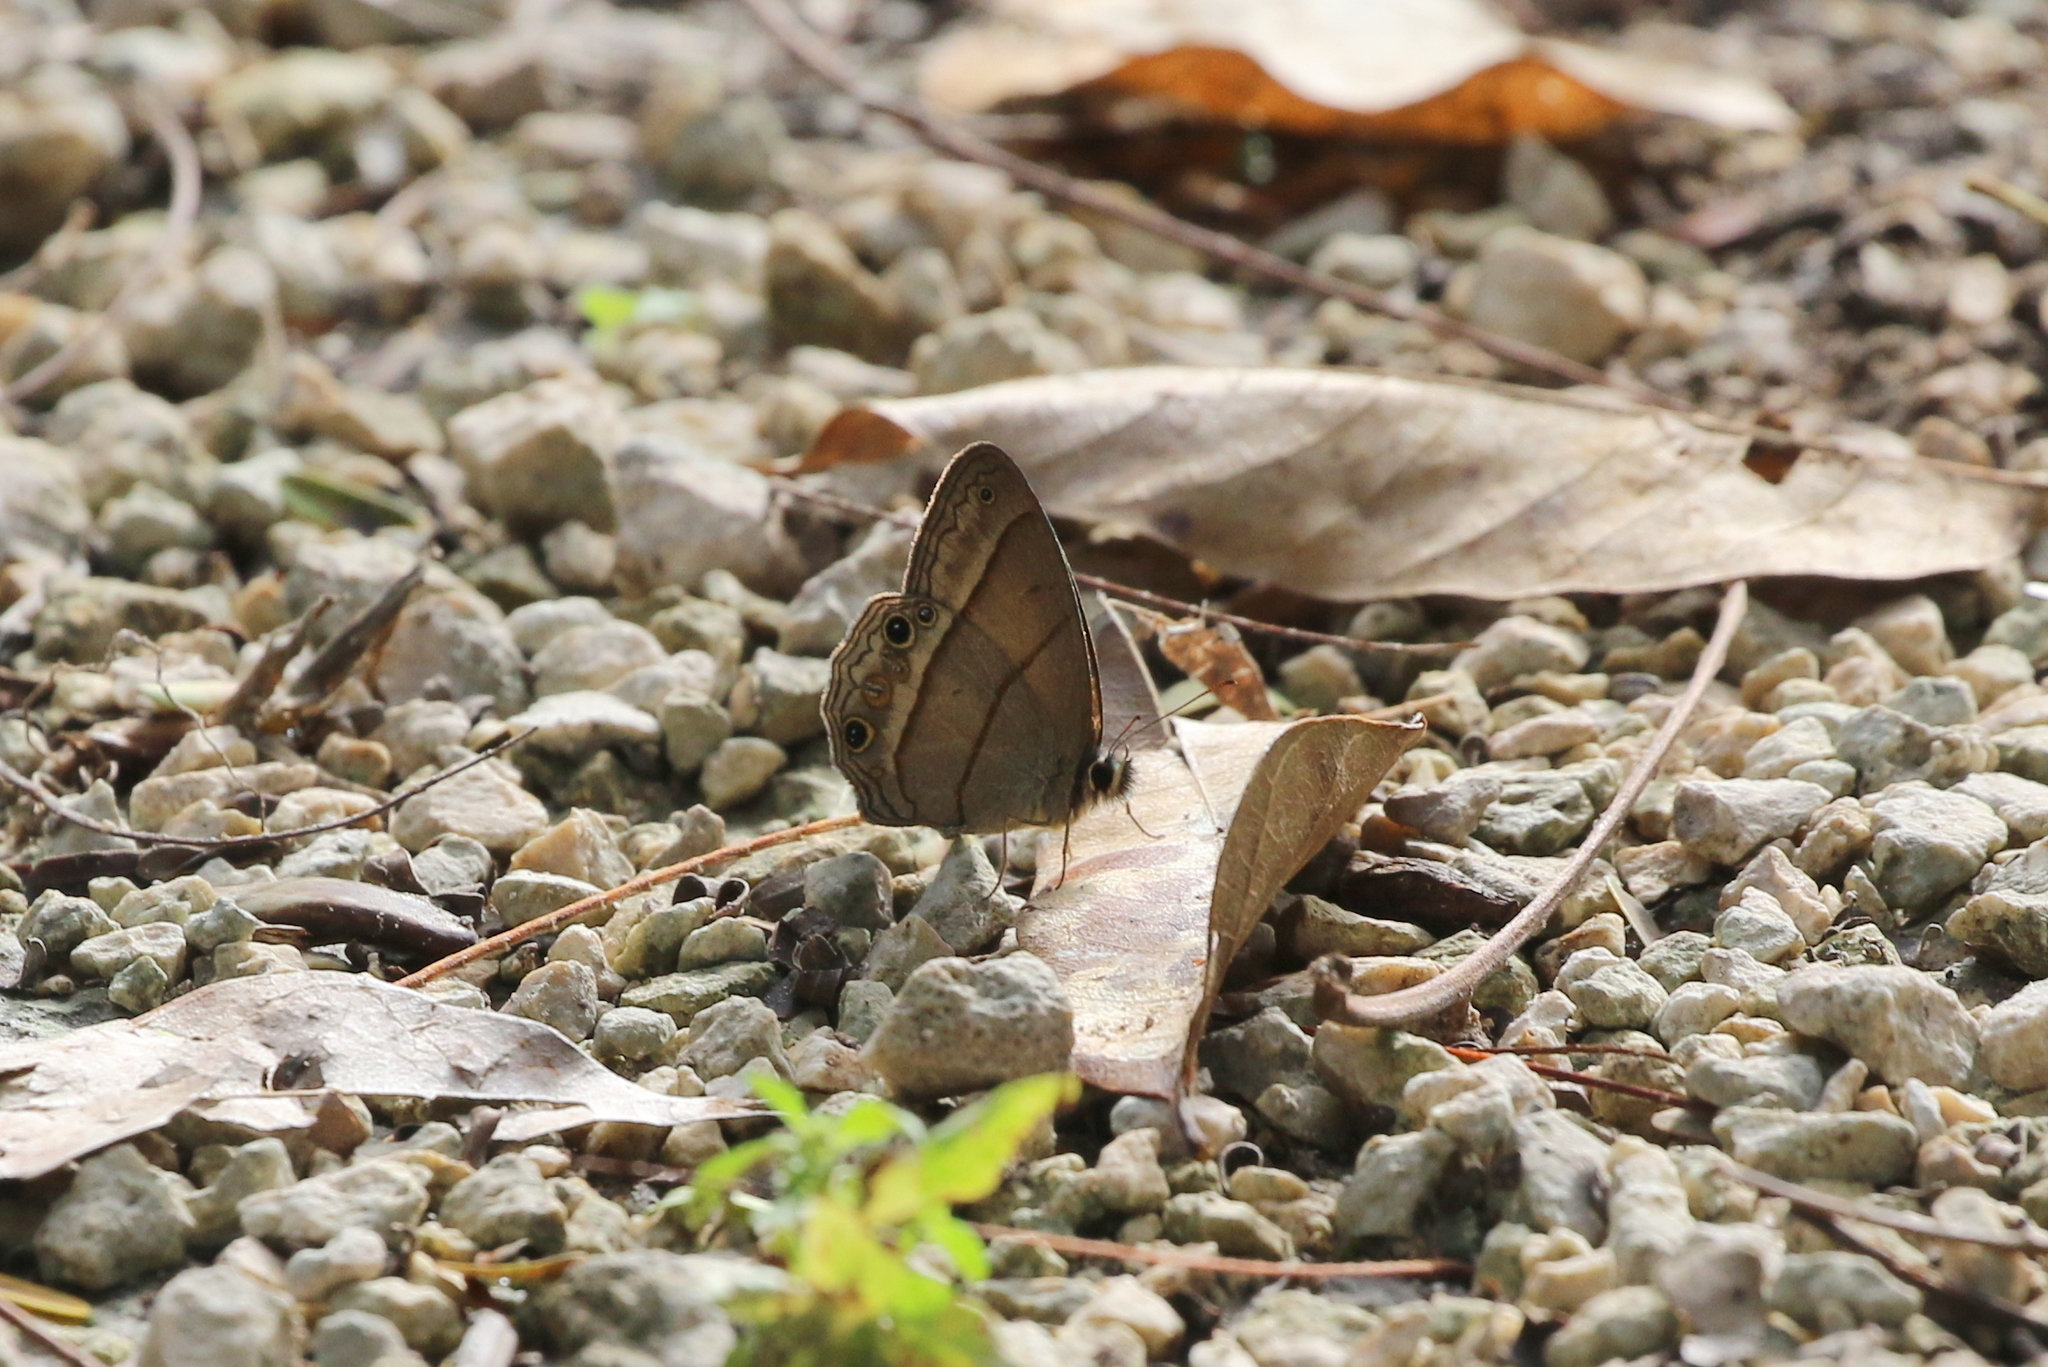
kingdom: Animalia
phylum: Arthropoda
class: Insecta
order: Lepidoptera
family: Nymphalidae
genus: Euptychia
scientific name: Euptychia Cissia pompilia
